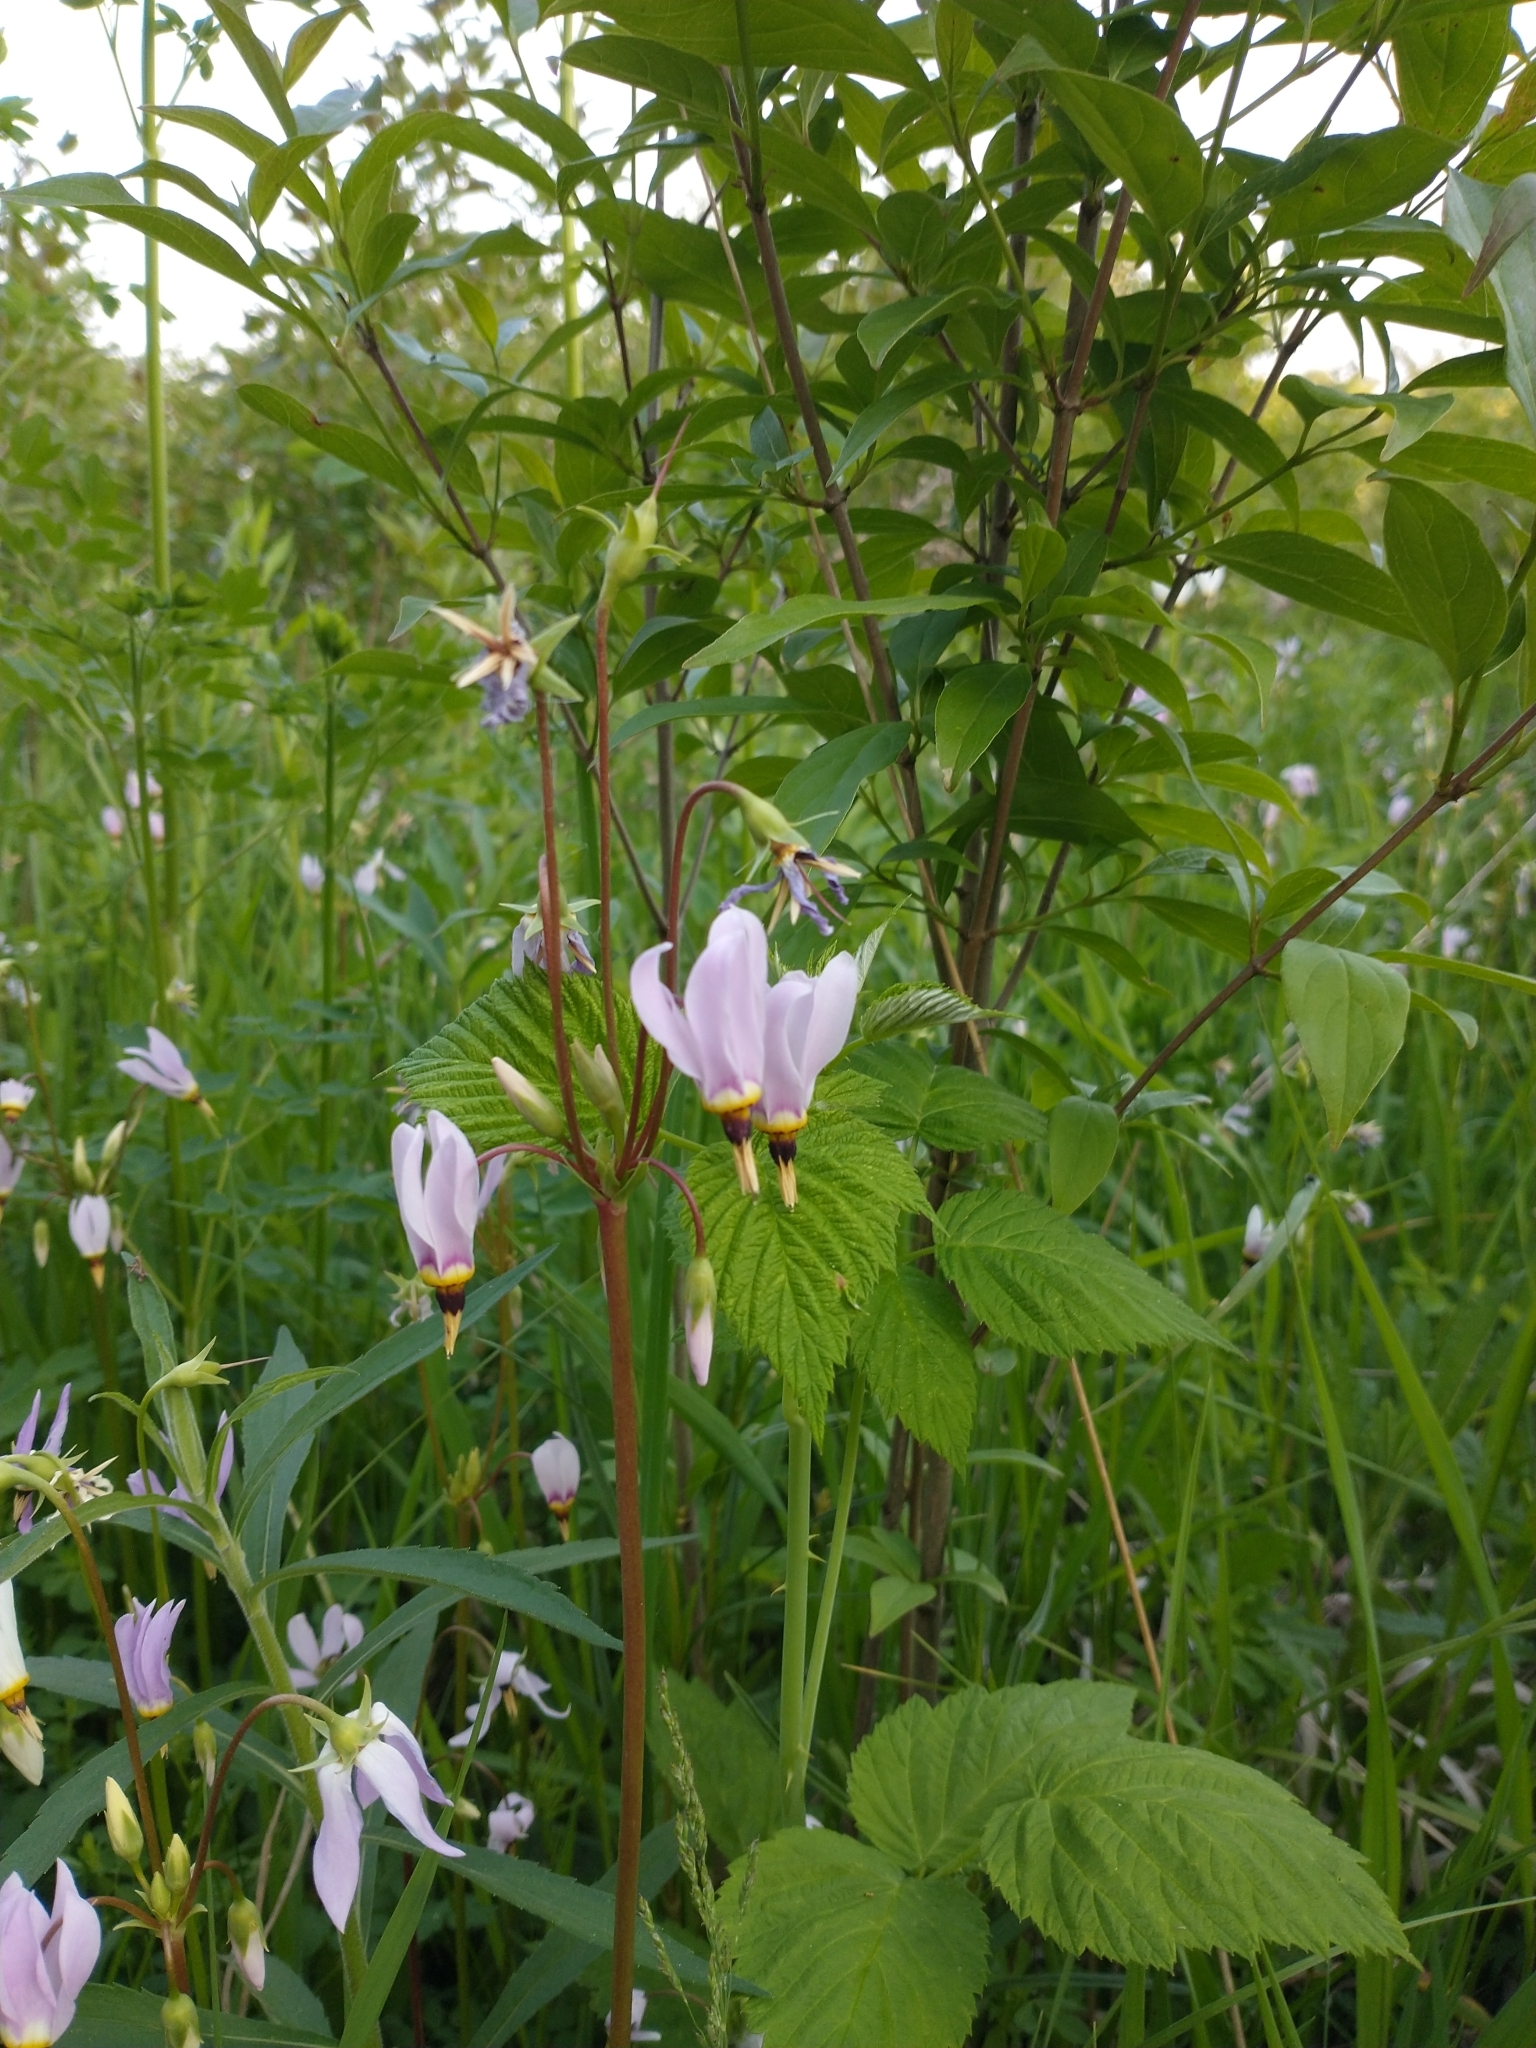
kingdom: Plantae
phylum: Tracheophyta
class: Magnoliopsida
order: Ericales
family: Primulaceae
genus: Dodecatheon
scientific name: Dodecatheon meadia
